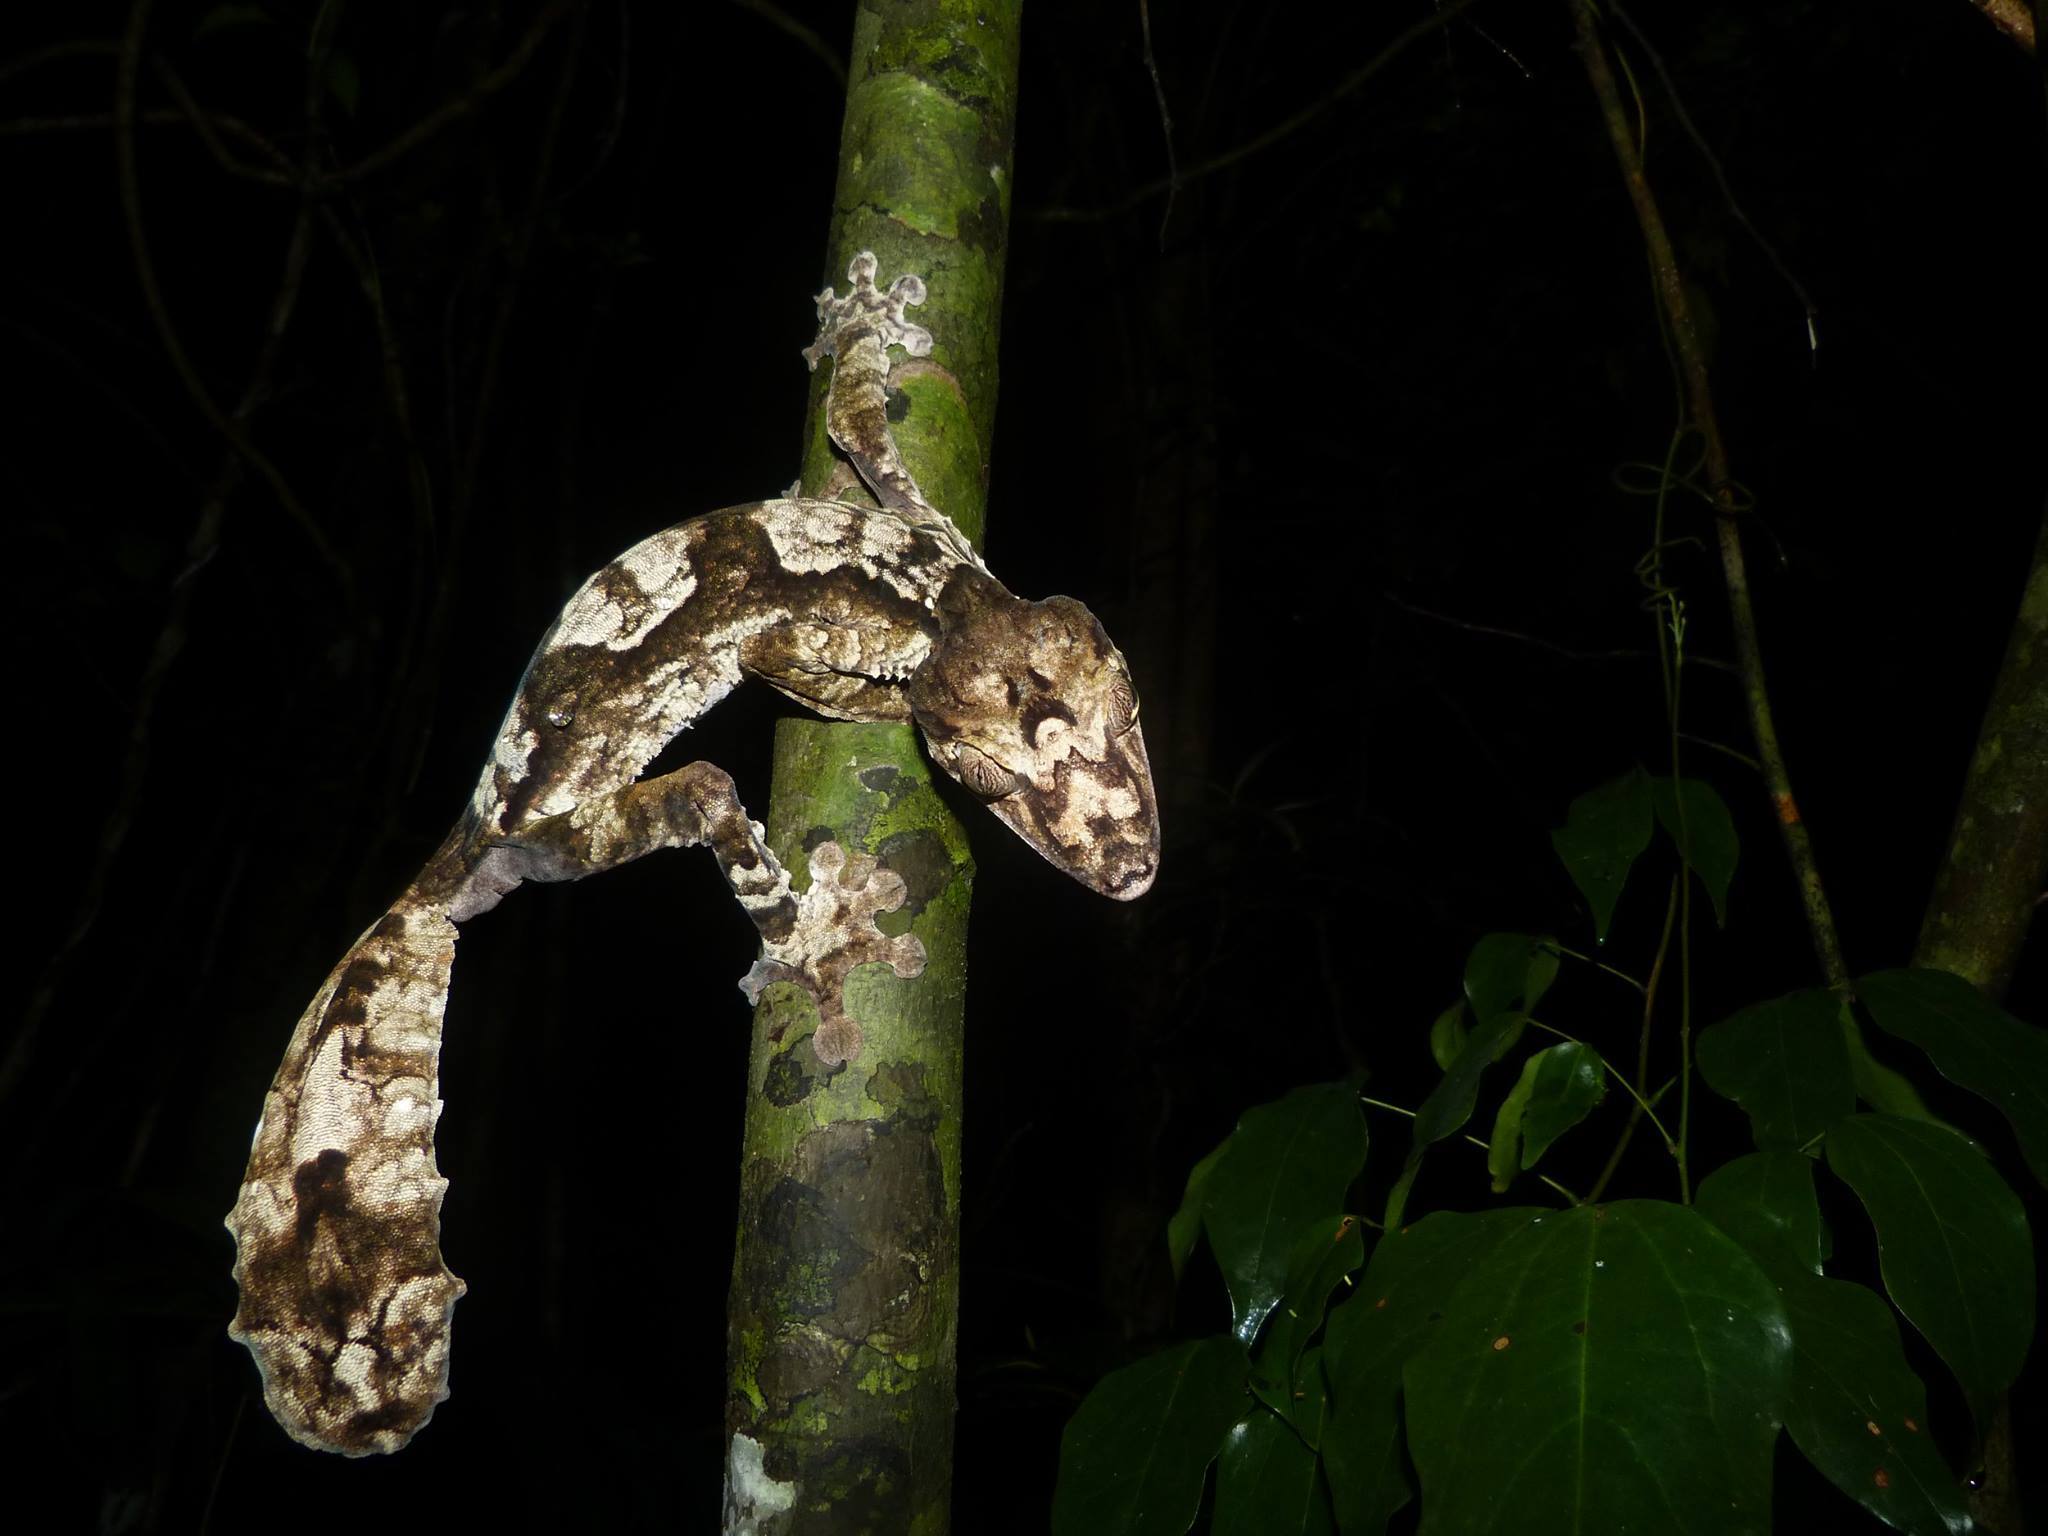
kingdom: Animalia
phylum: Chordata
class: Squamata
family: Gekkonidae
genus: Uroplatus
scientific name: Uroplatus giganteus
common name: Giant leaf-tail gecko
